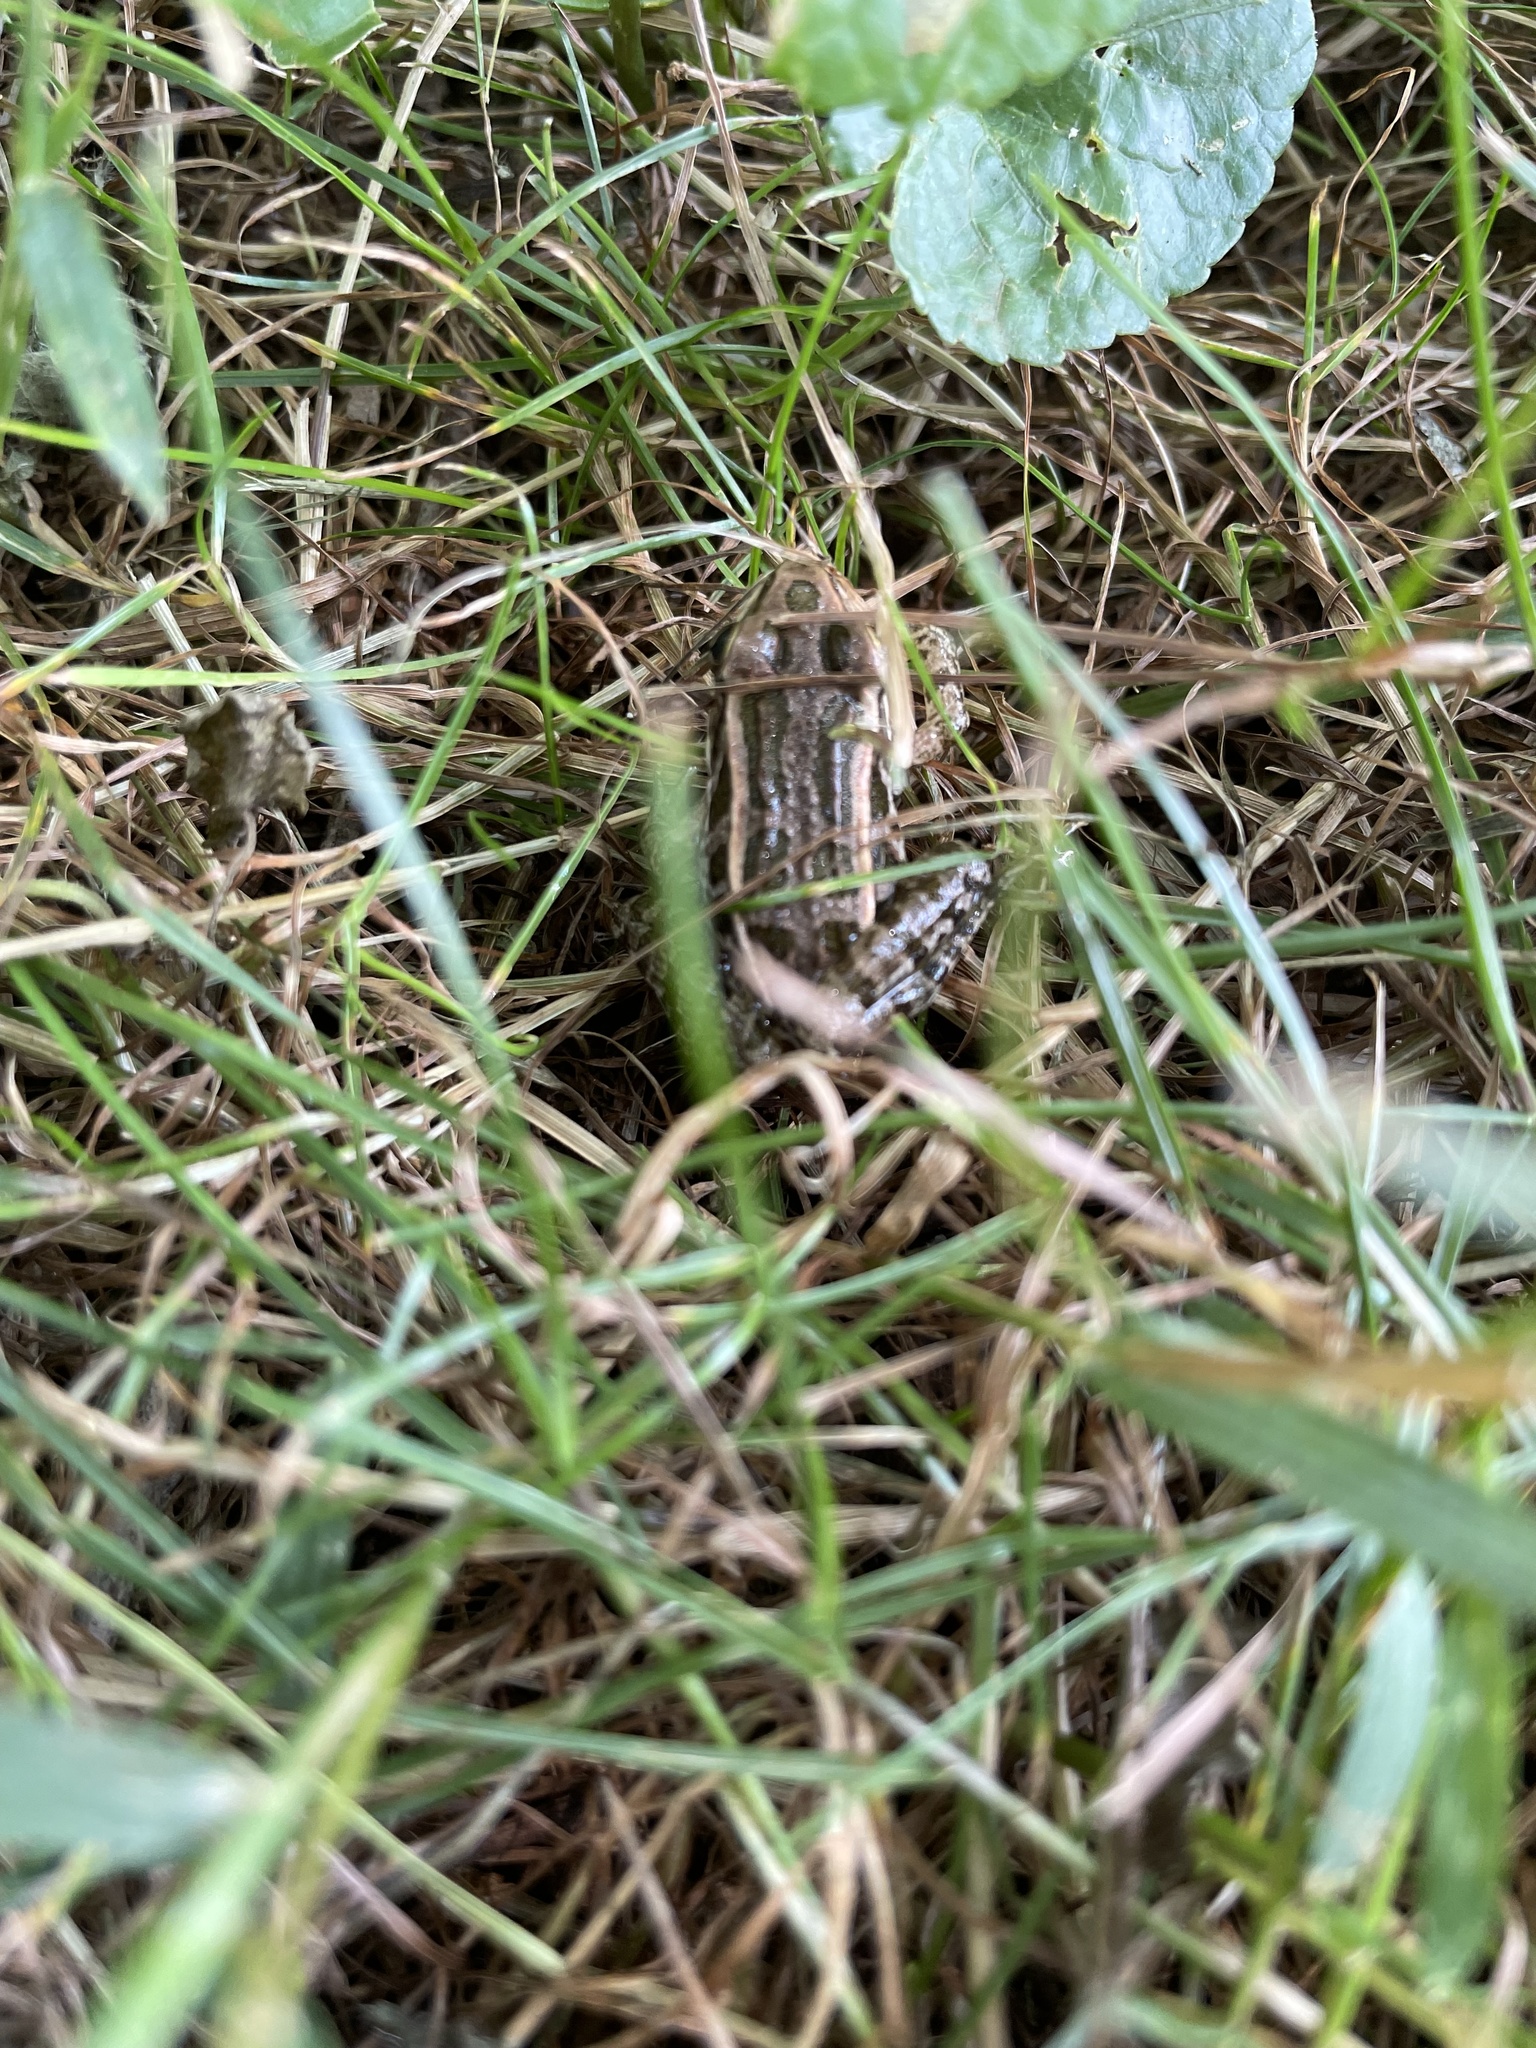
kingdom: Animalia
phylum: Chordata
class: Amphibia
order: Anura
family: Ranidae
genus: Lithobates
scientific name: Lithobates palustris
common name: Pickerel frog
